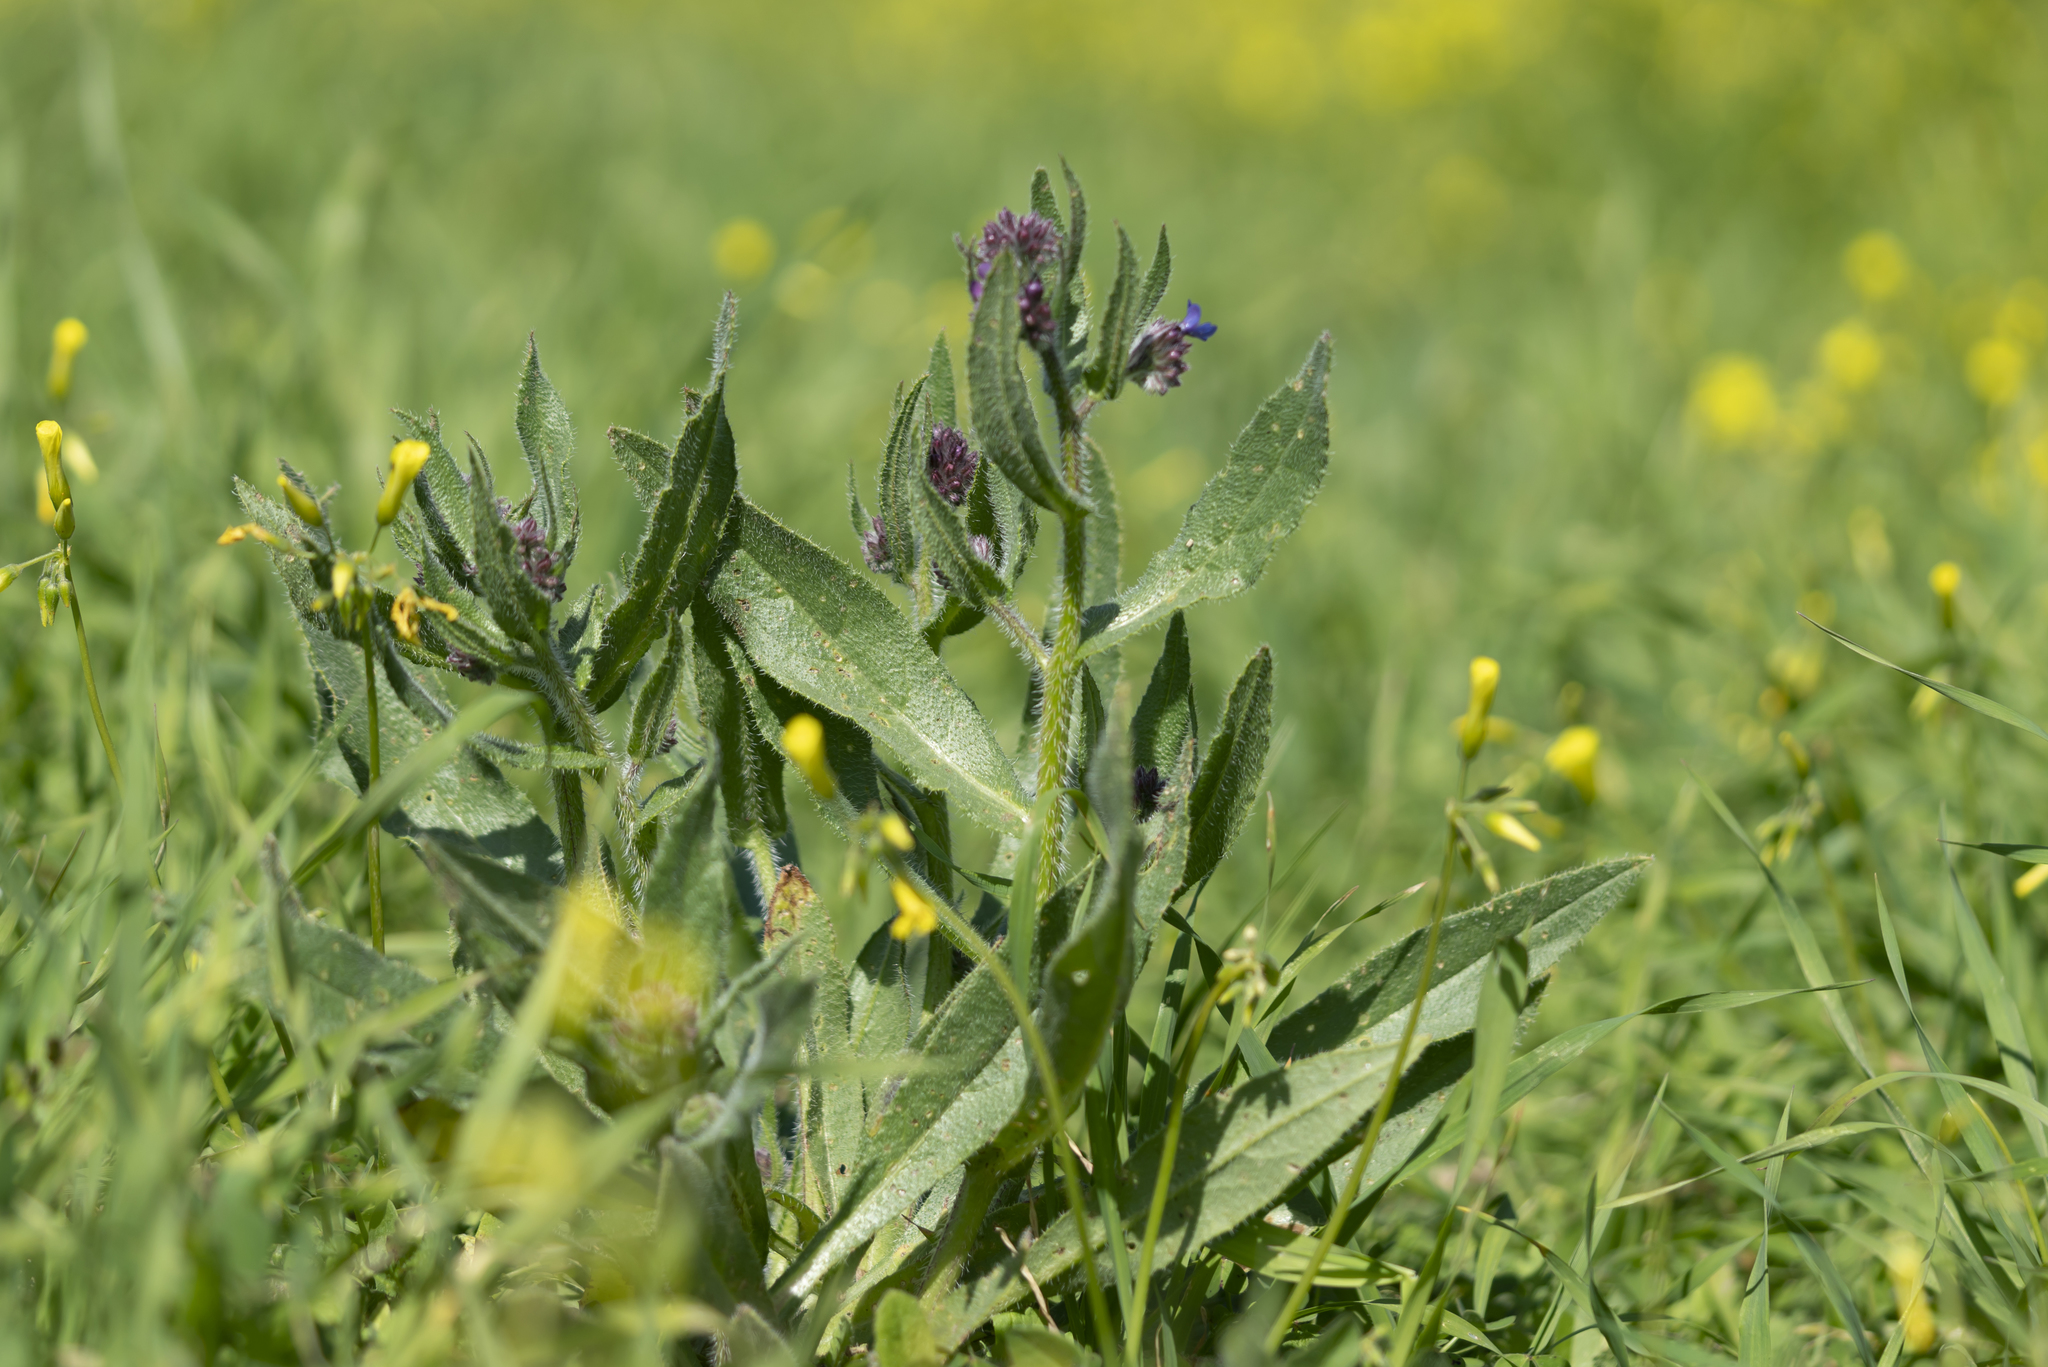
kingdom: Plantae
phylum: Tracheophyta
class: Magnoliopsida
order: Boraginales
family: Boraginaceae
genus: Anchusa
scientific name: Anchusa azurea
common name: Garden anchusa
